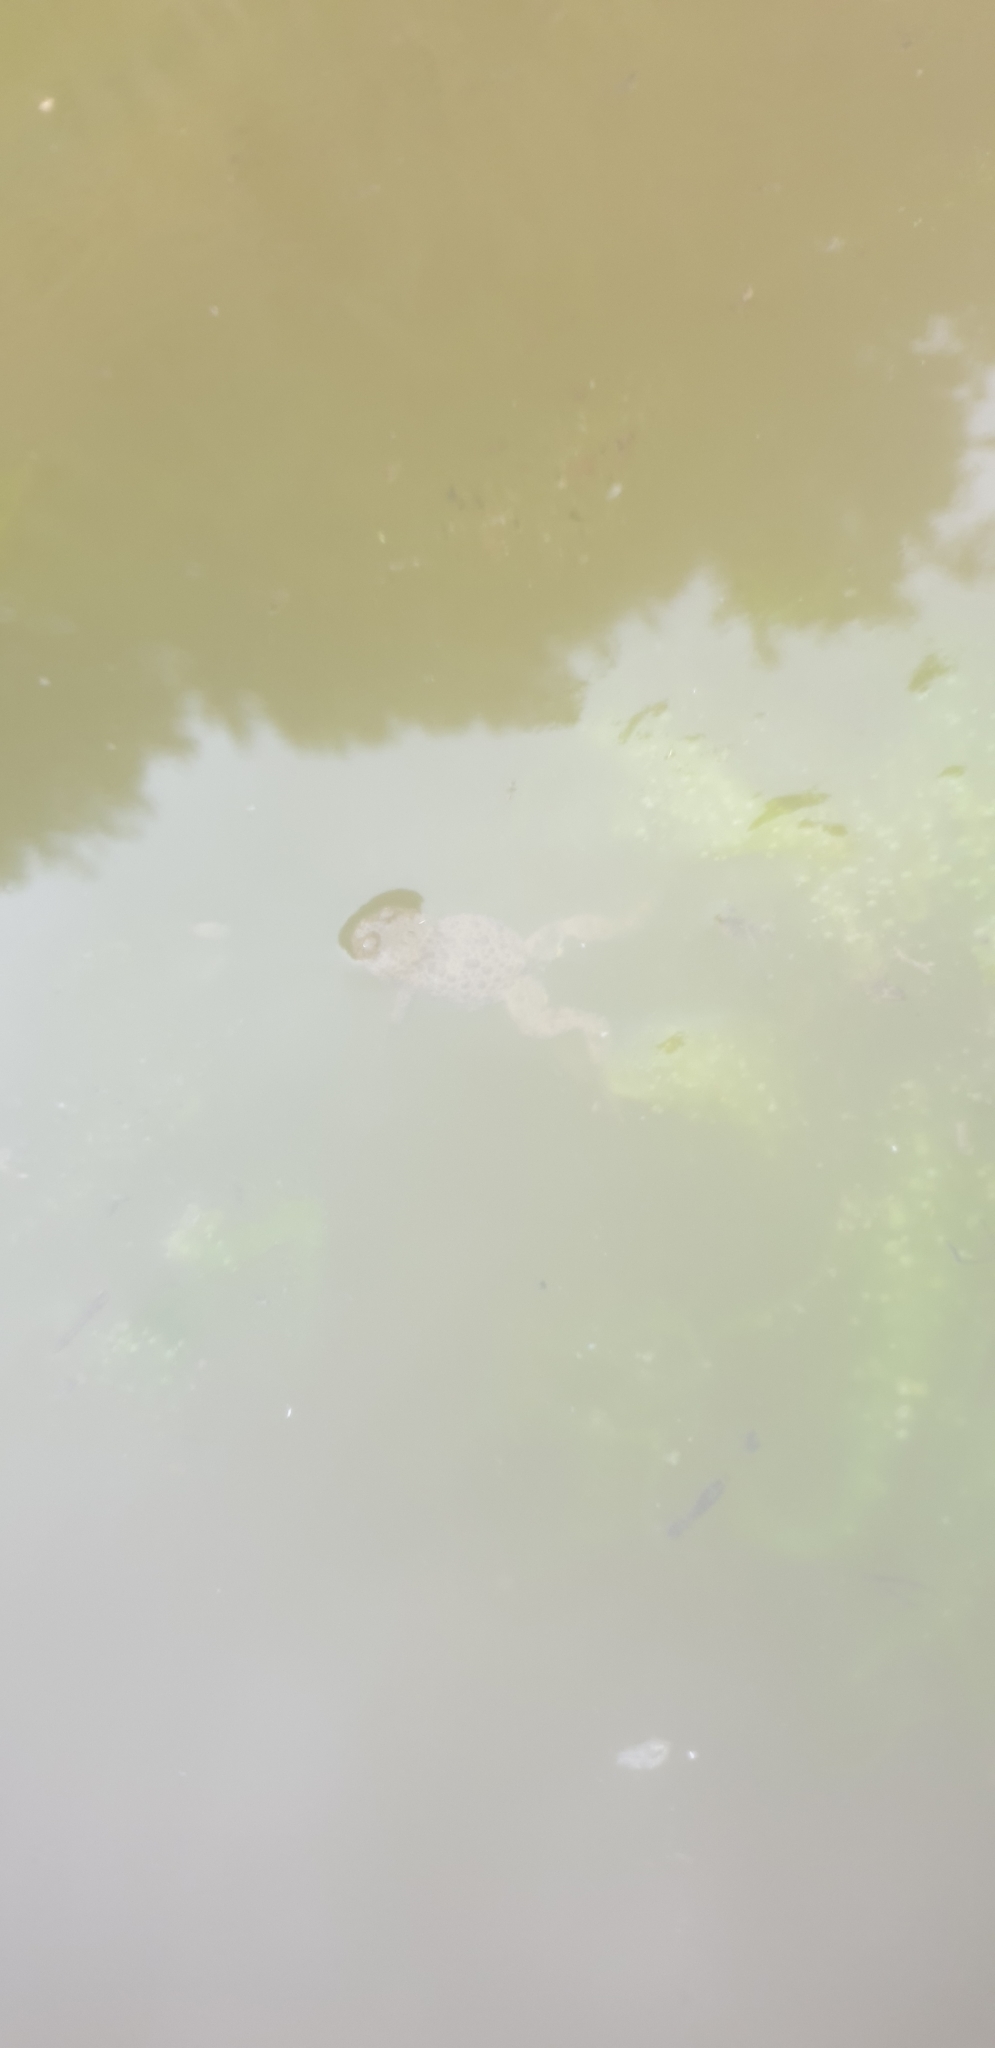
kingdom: Animalia
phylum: Chordata
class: Amphibia
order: Anura
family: Bombinatoridae
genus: Bombina
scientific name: Bombina variegata
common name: Yellow-bellied toad
